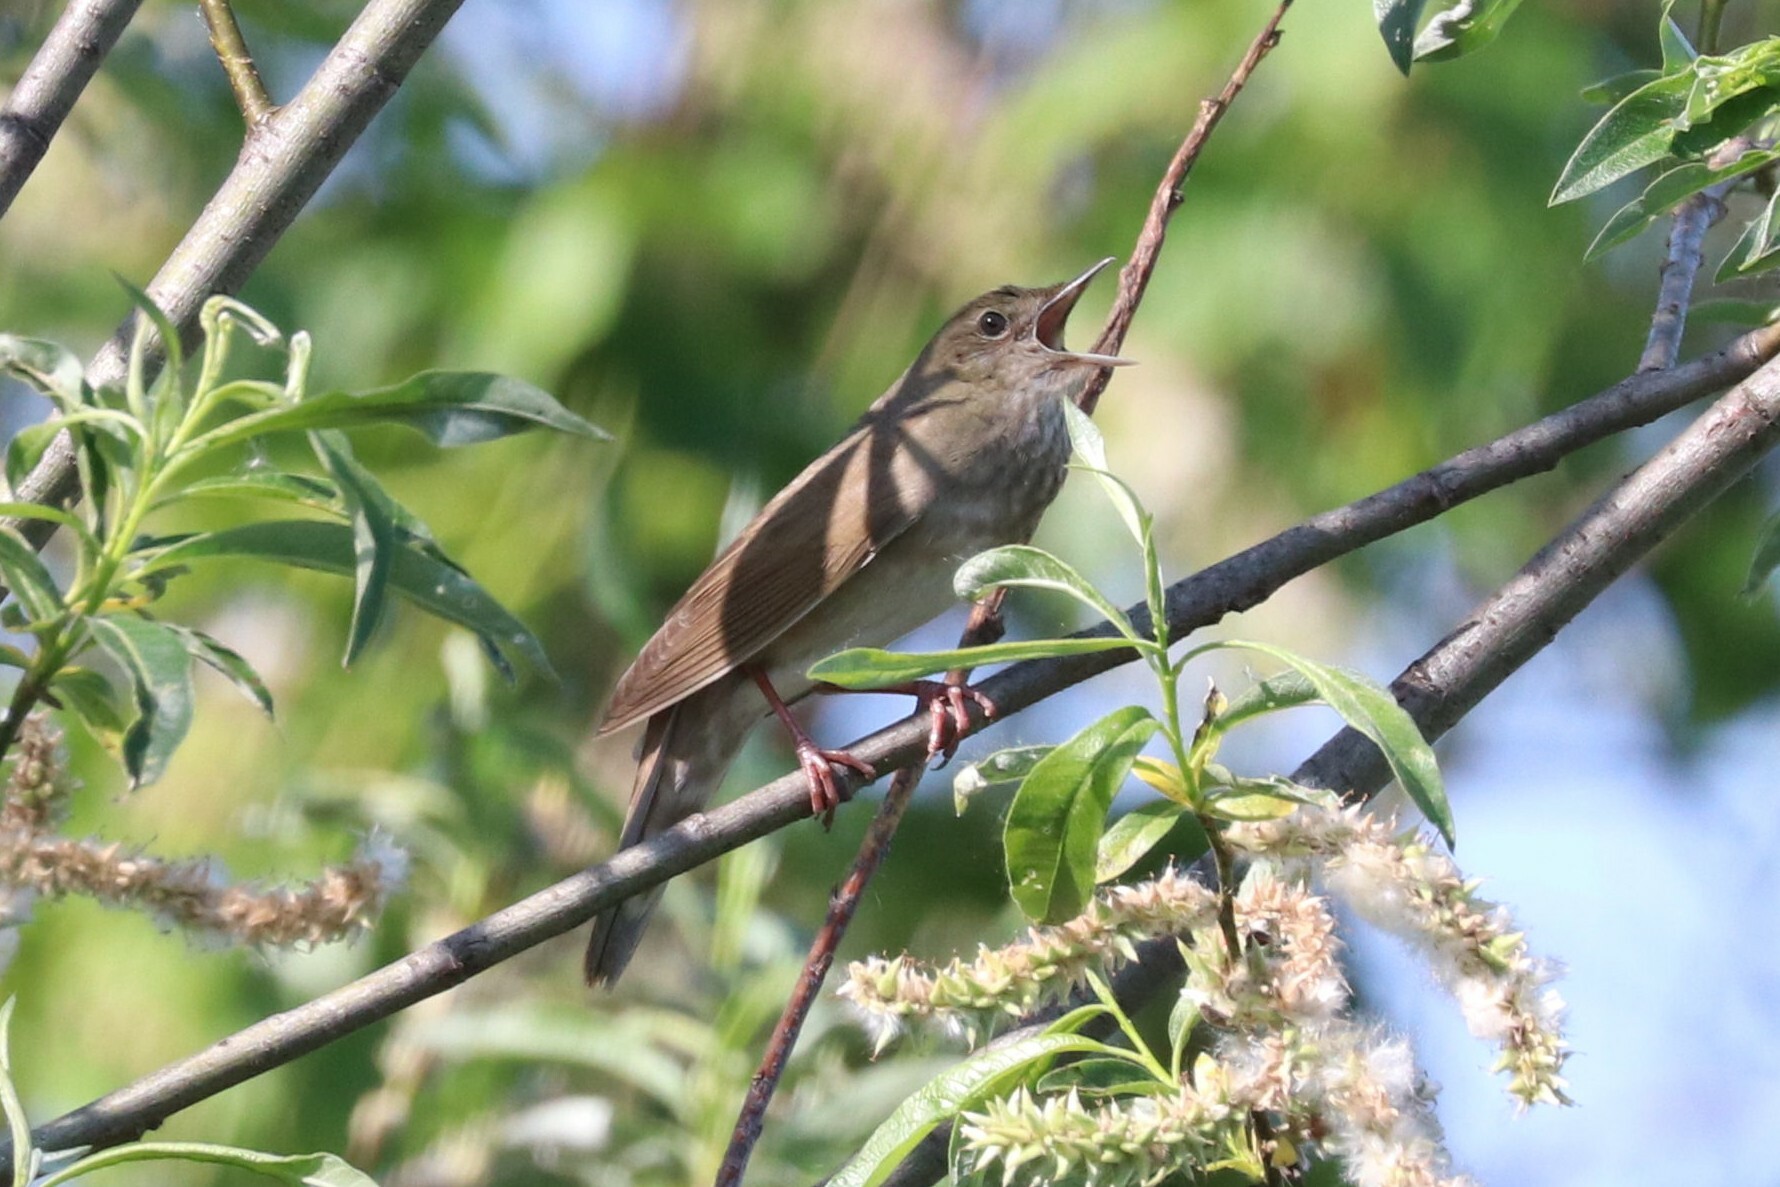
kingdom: Animalia
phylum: Chordata
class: Aves
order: Passeriformes
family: Locustellidae
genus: Locustella
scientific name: Locustella fluviatilis
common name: River warbler
